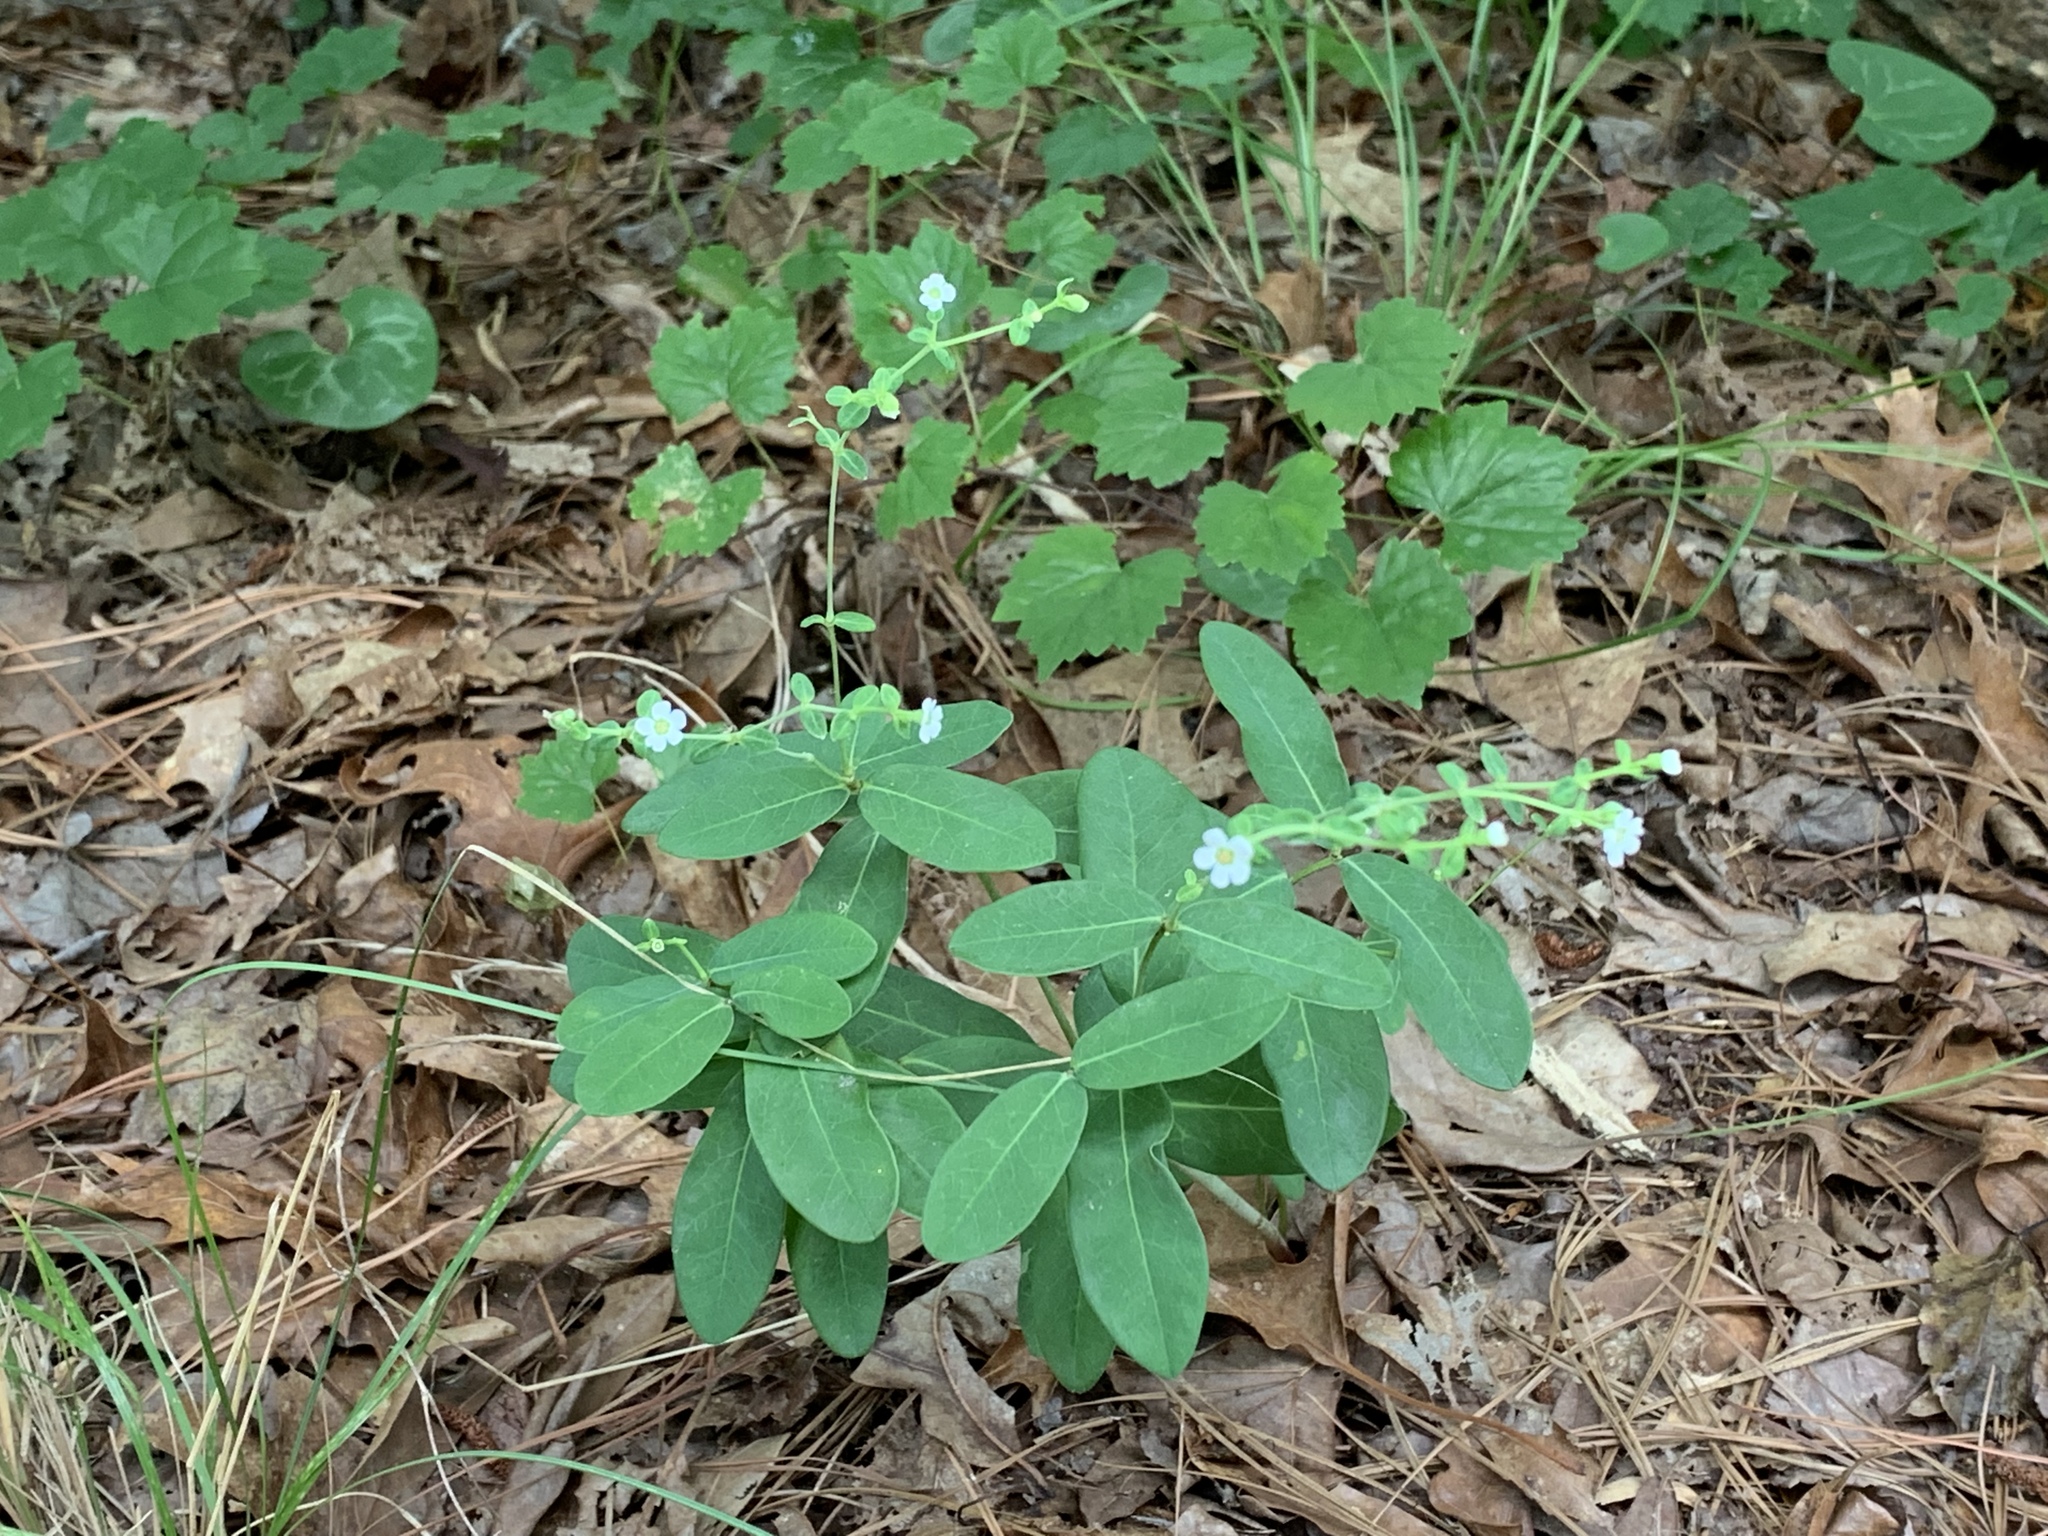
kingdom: Plantae
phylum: Tracheophyta
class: Magnoliopsida
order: Malpighiales
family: Euphorbiaceae
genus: Euphorbia
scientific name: Euphorbia corollata
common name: Flowering spurge
